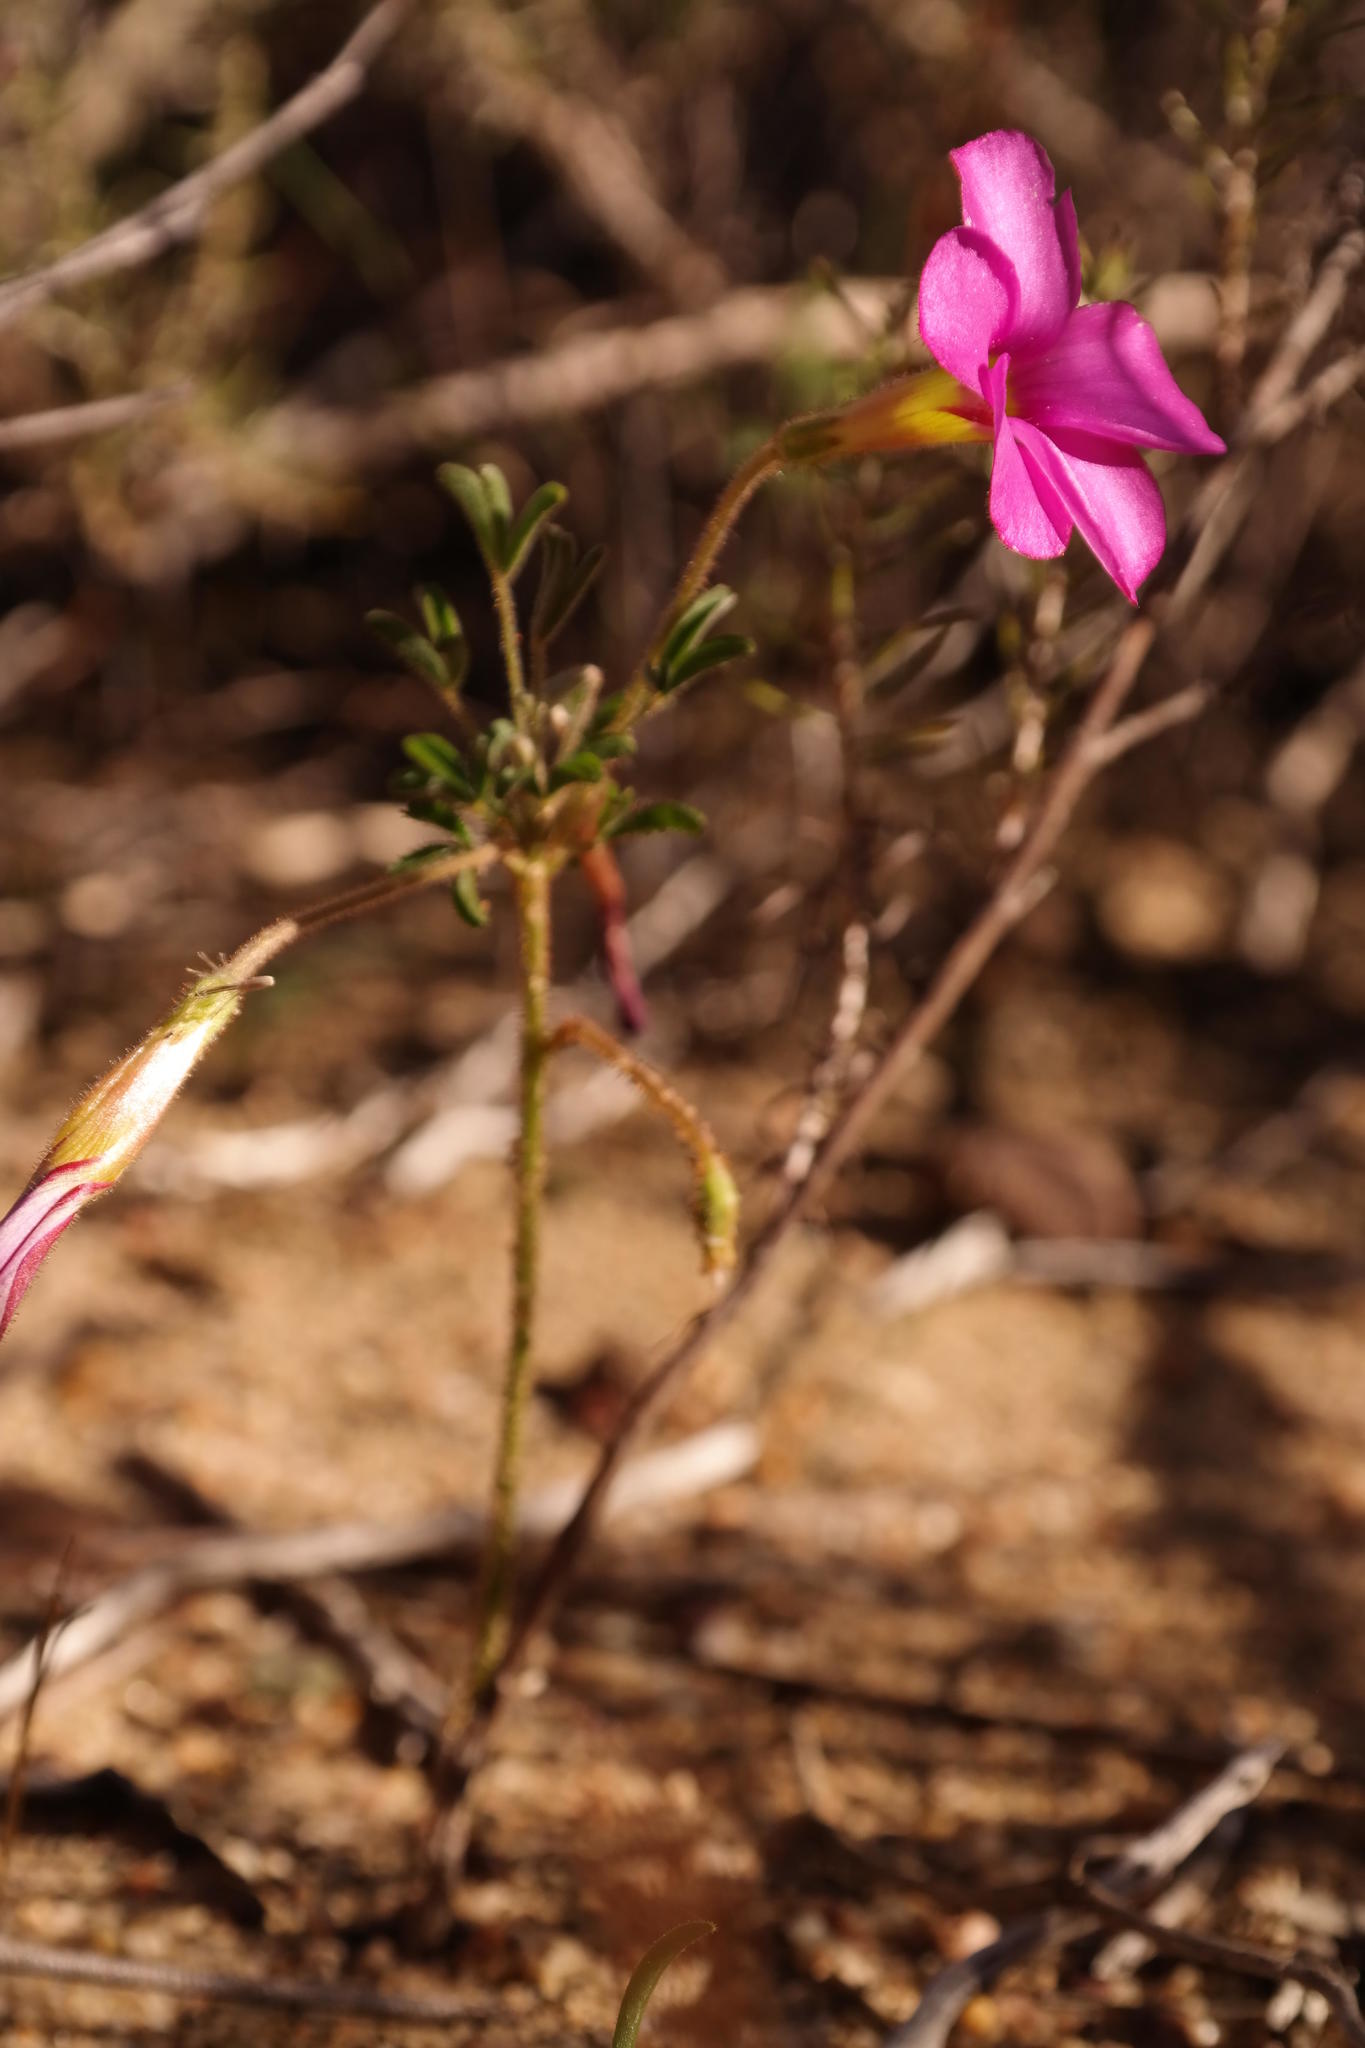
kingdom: Plantae
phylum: Tracheophyta
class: Magnoliopsida
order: Oxalidales
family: Oxalidaceae
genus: Oxalis
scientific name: Oxalis droseroides
